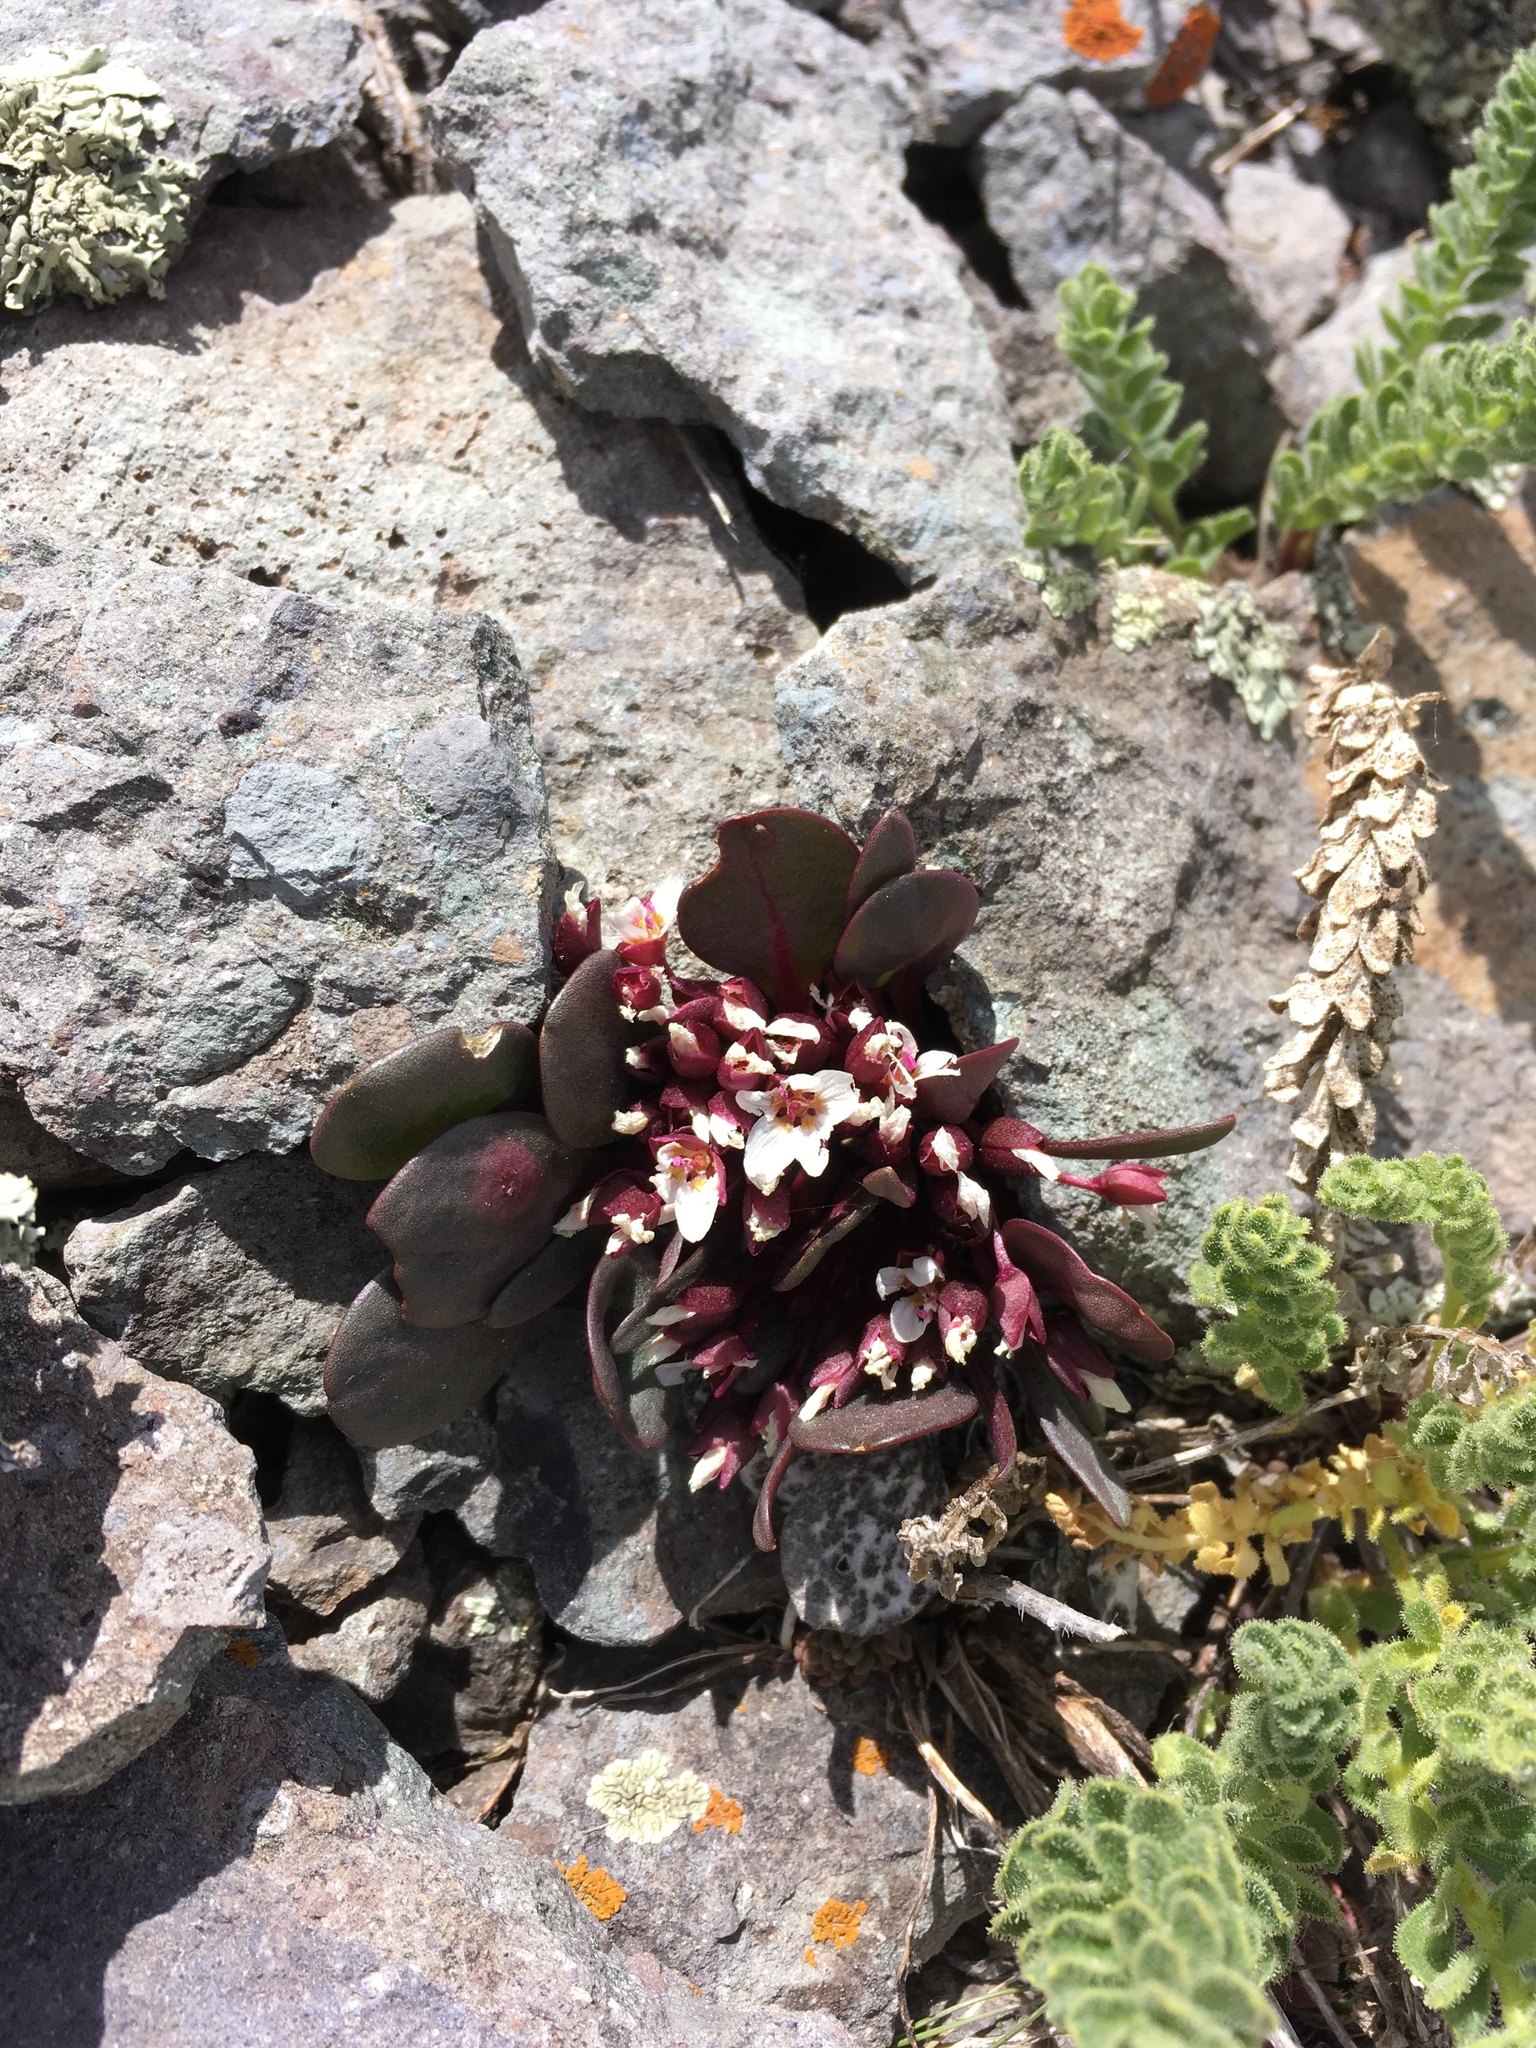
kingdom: Plantae
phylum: Tracheophyta
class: Magnoliopsida
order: Caryophyllales
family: Montiaceae
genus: Claytonia
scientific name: Claytonia megarhiza
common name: Alpine spring beauty
